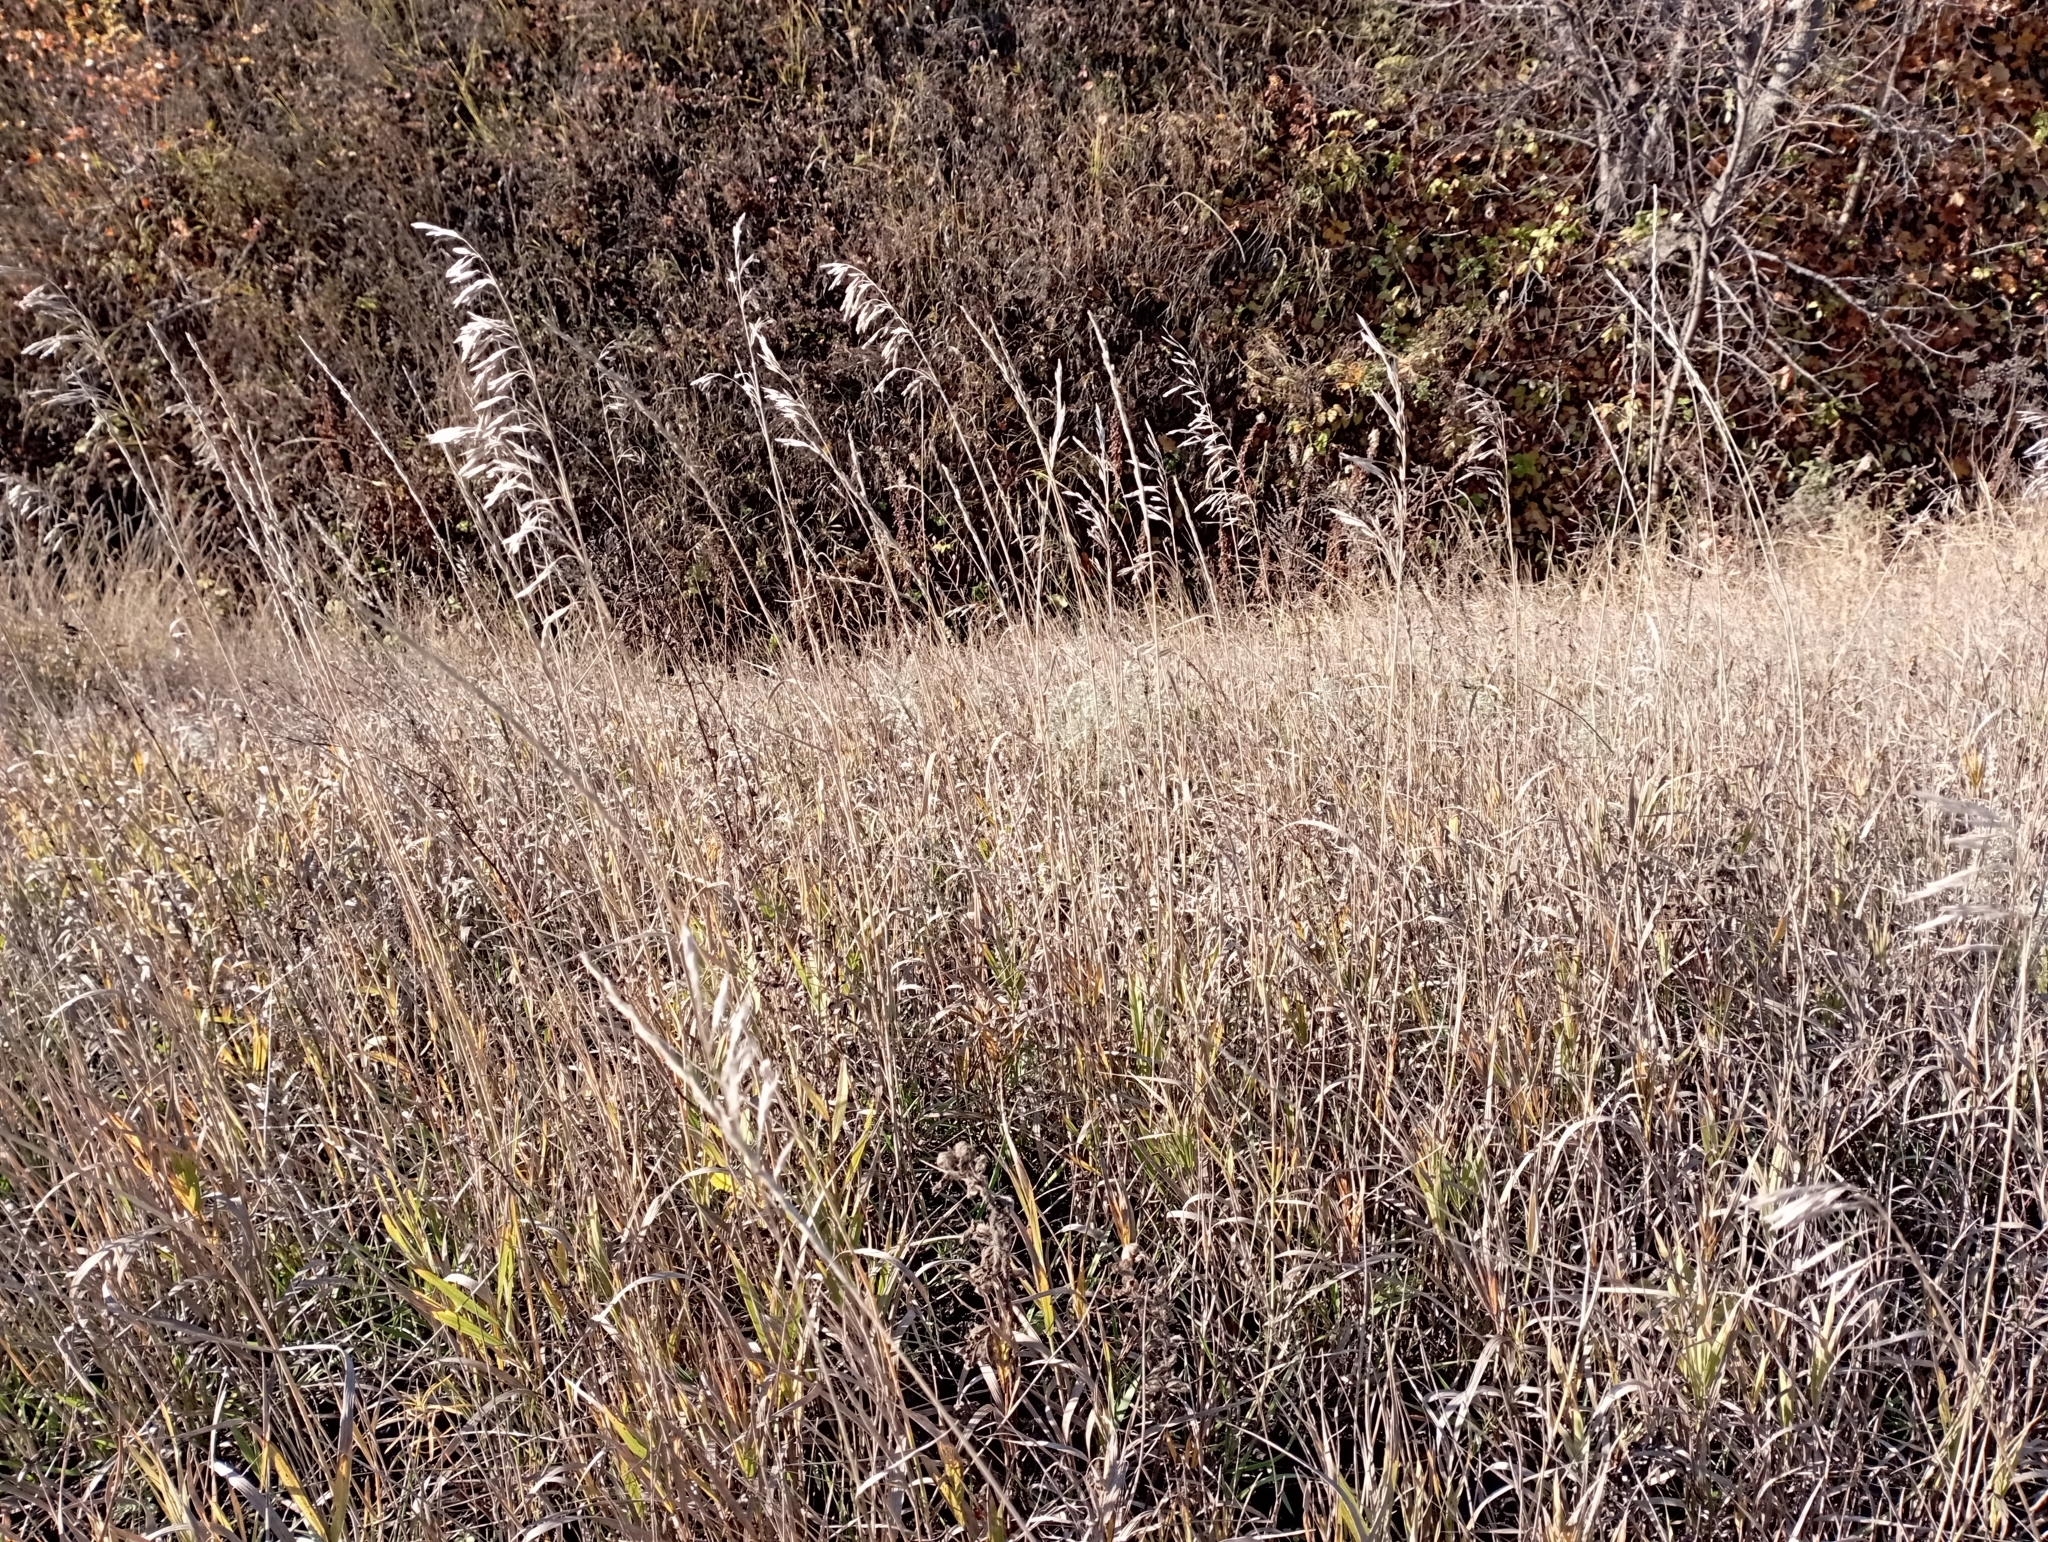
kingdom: Plantae
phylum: Tracheophyta
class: Liliopsida
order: Poales
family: Poaceae
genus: Bromus
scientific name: Bromus inermis
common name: Smooth brome
